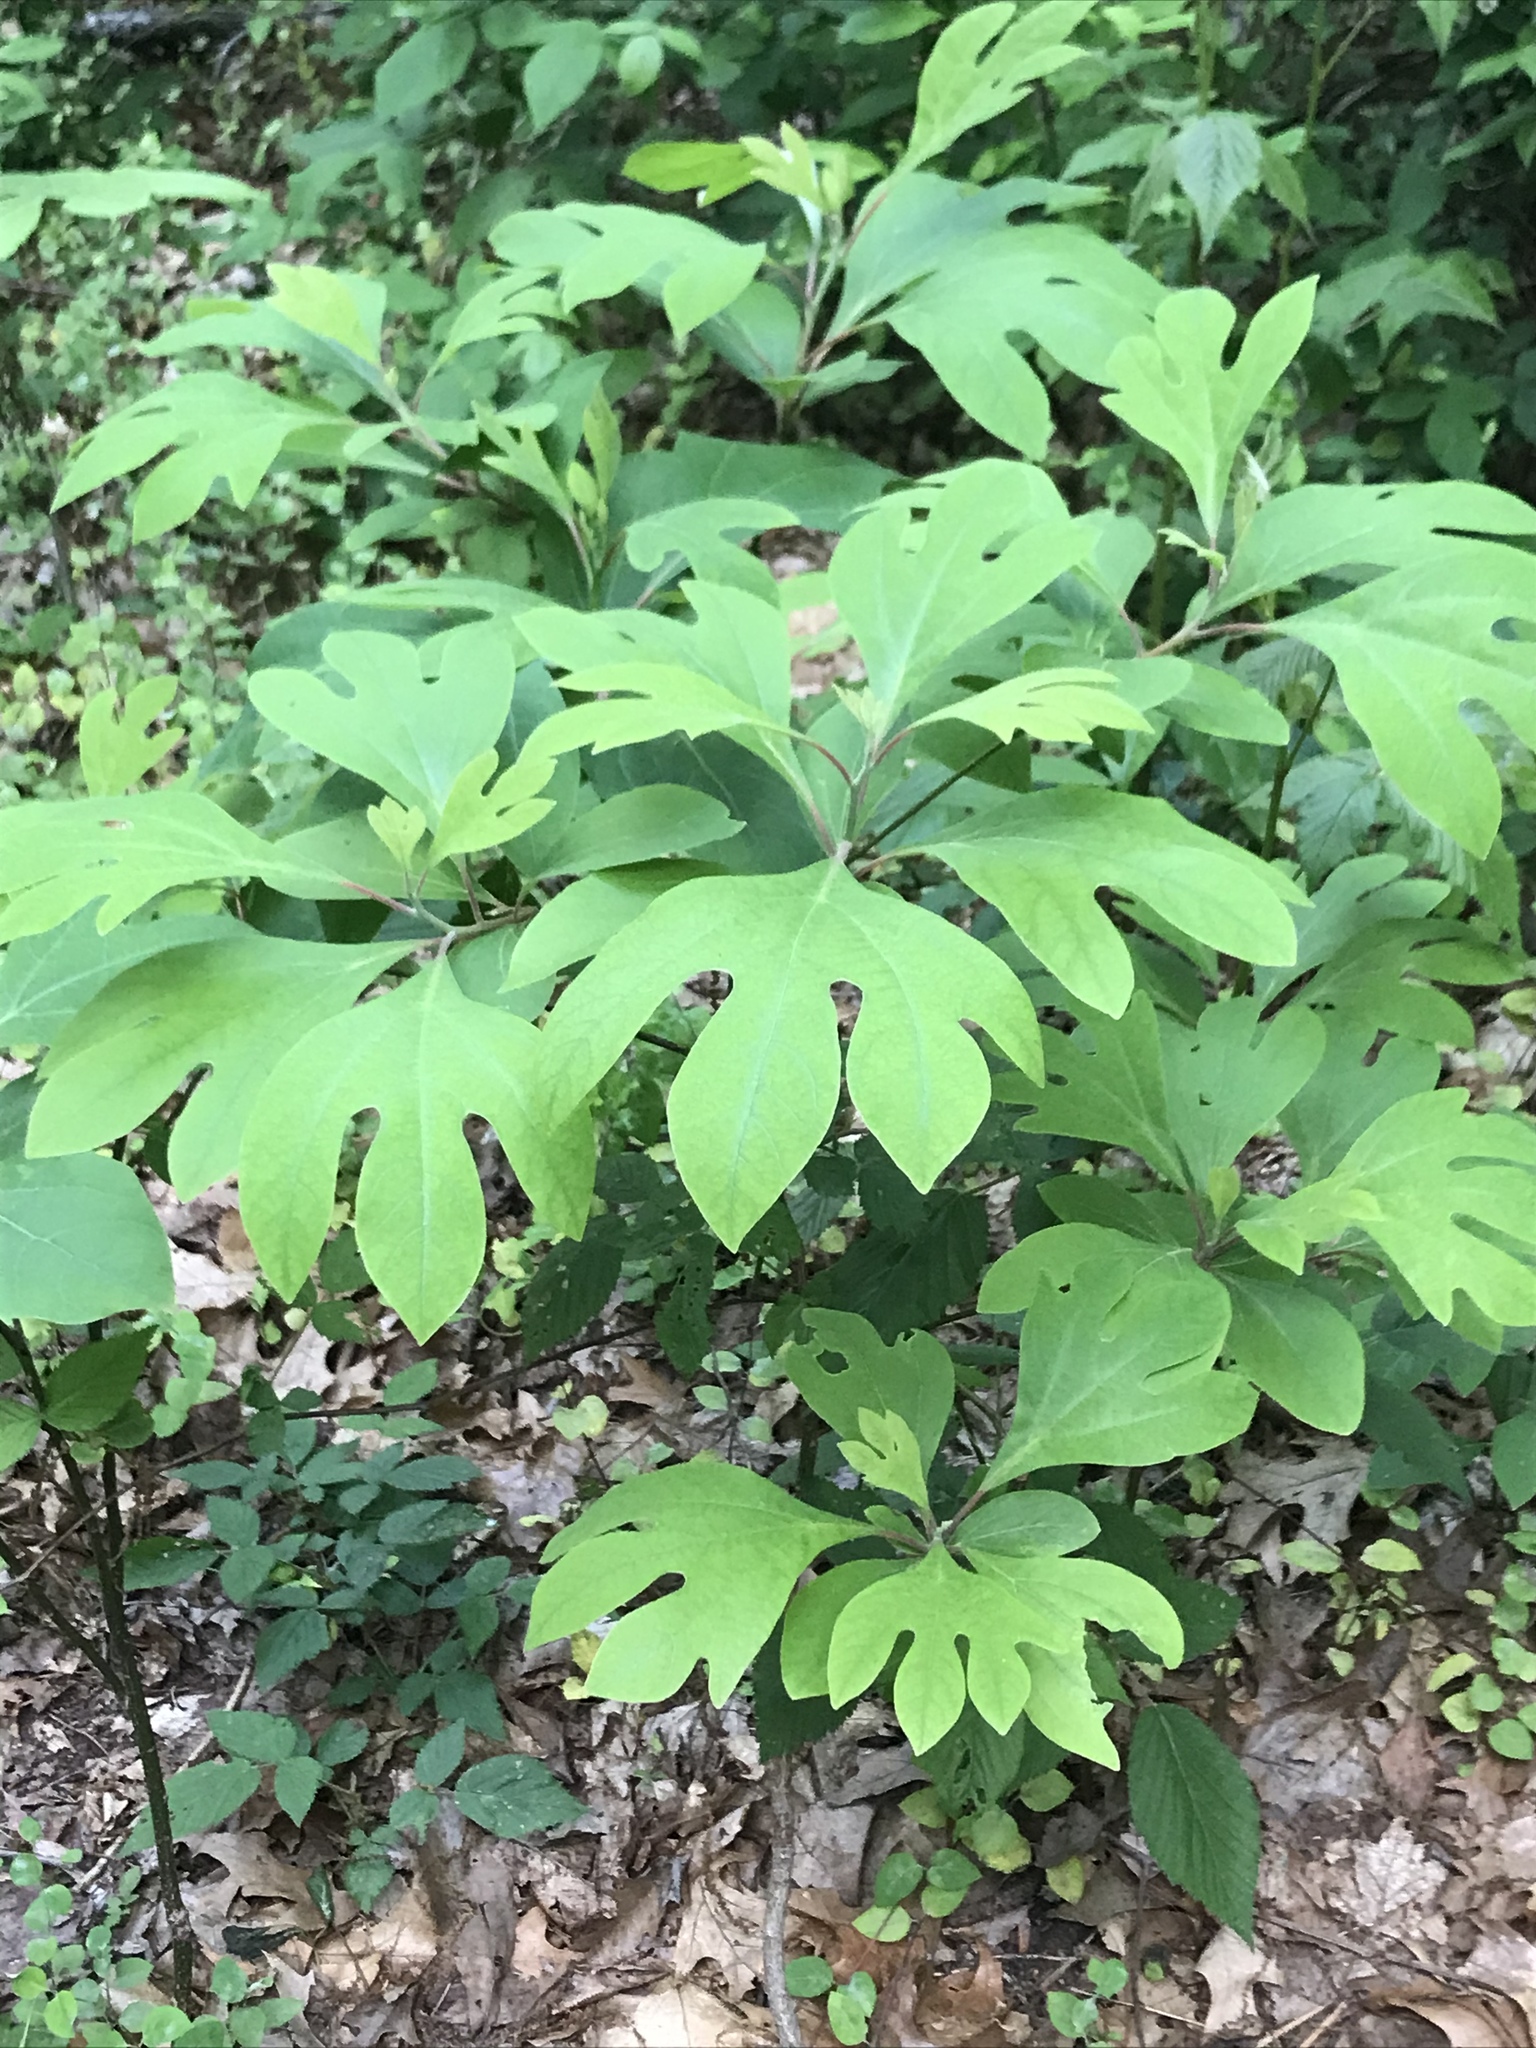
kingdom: Plantae
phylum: Tracheophyta
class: Magnoliopsida
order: Laurales
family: Lauraceae
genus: Sassafras
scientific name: Sassafras albidum
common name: Sassafras
